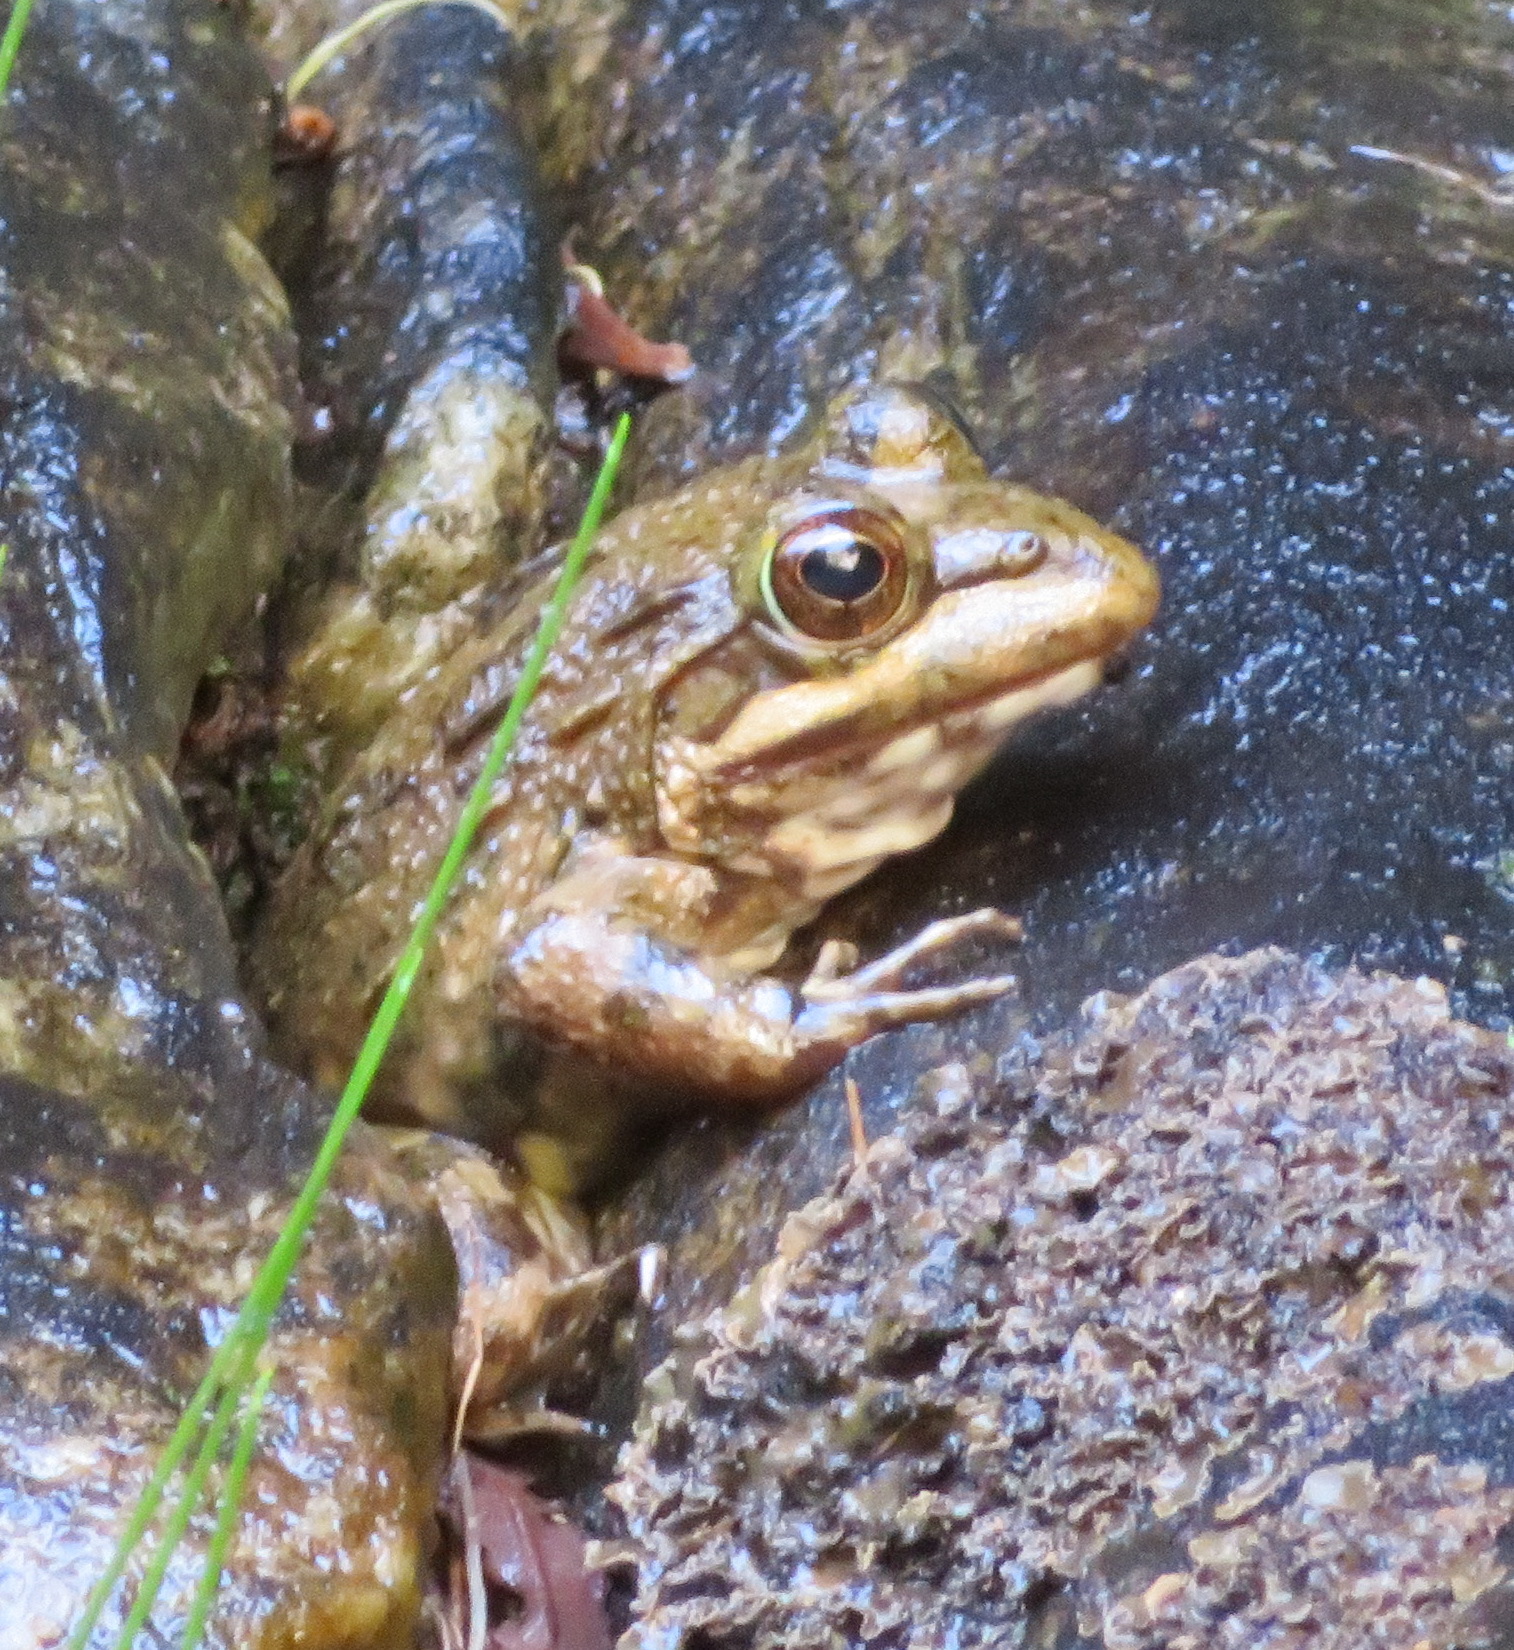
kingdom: Animalia
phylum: Chordata
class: Amphibia
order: Anura
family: Pyxicephalidae
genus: Amietia
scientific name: Amietia fuscigula
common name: Cape rana
